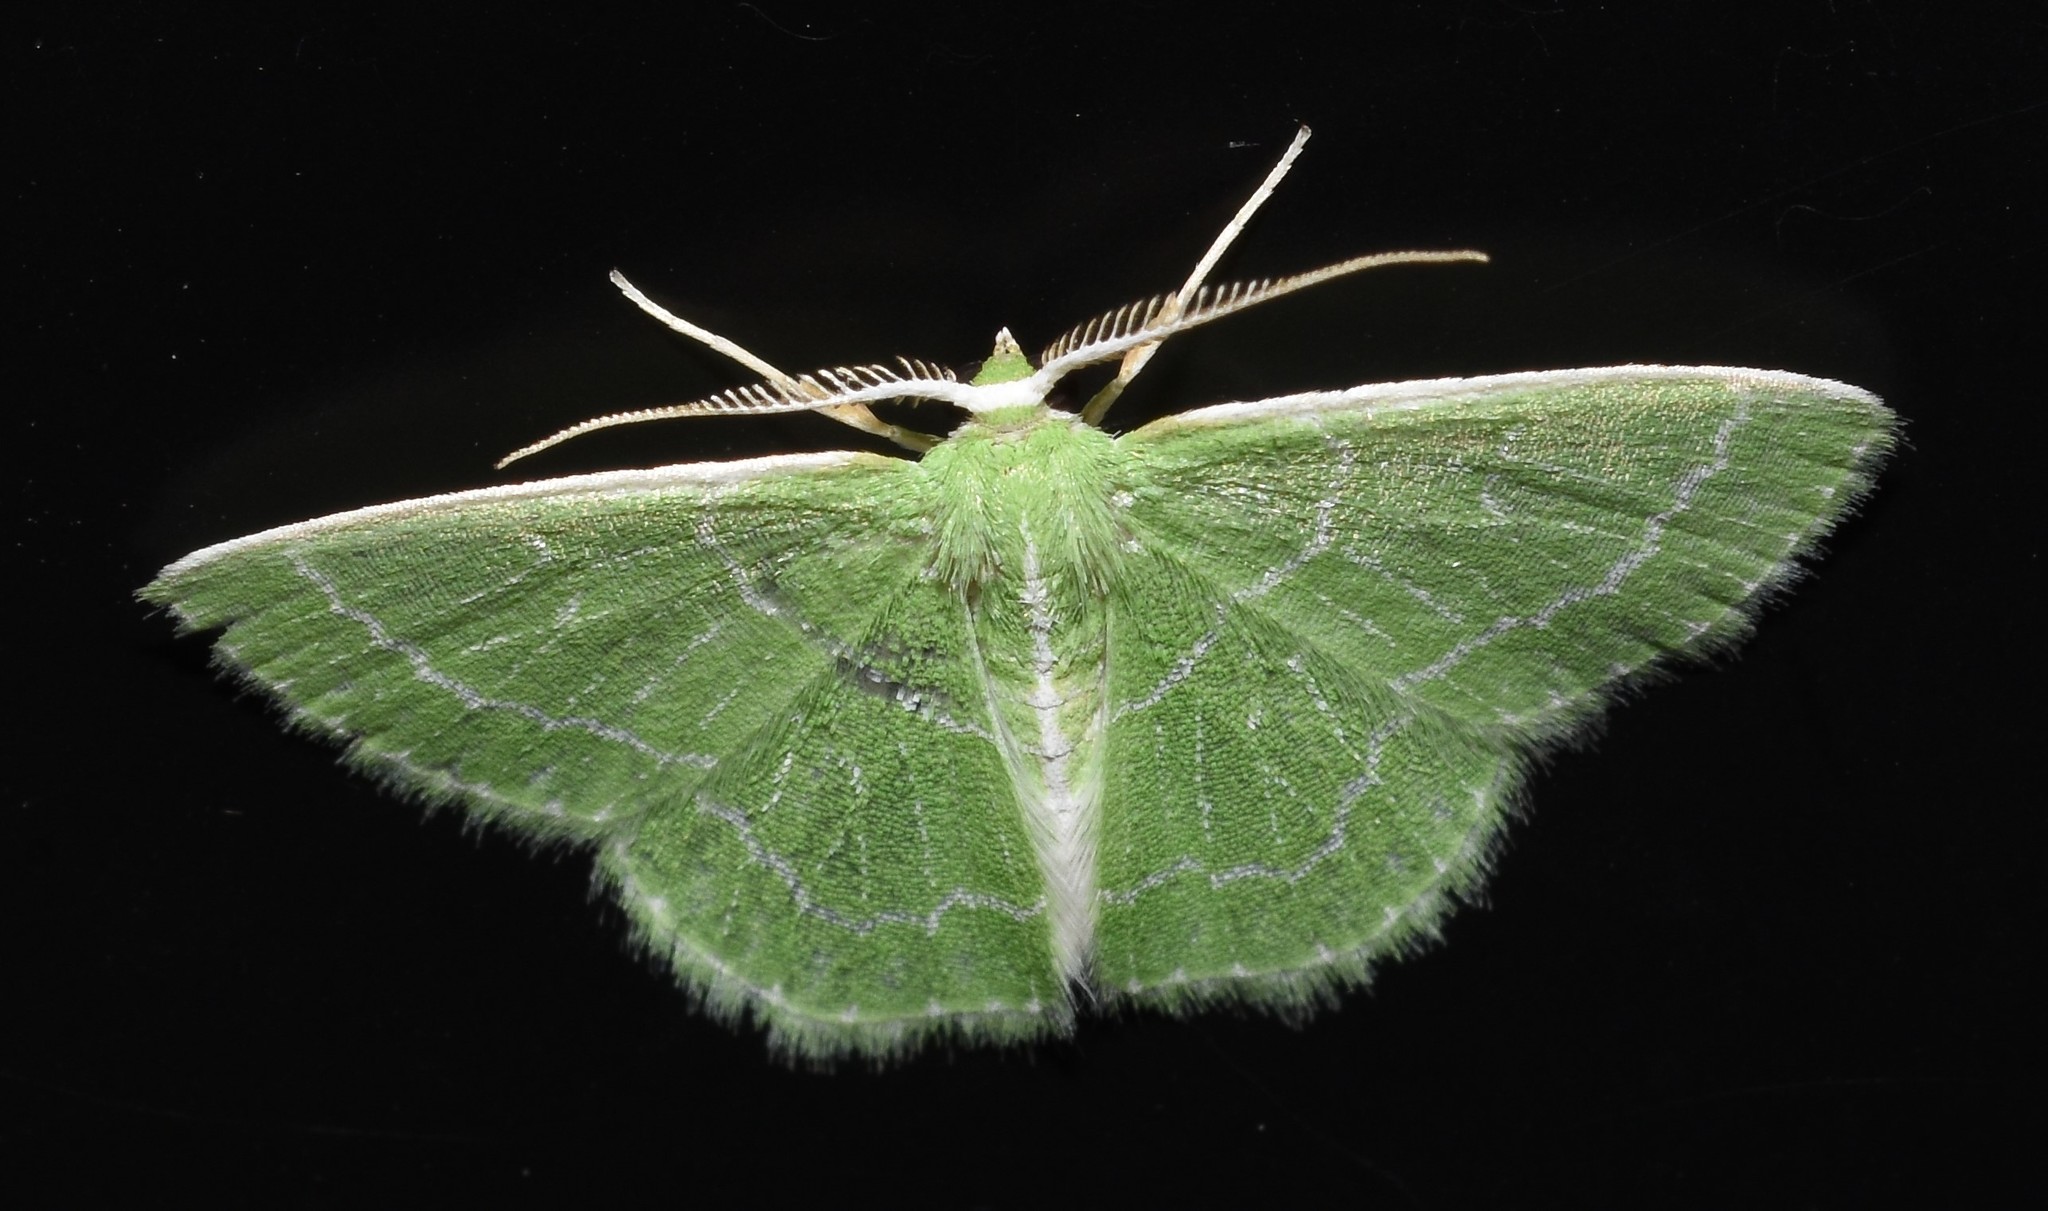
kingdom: Animalia
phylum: Arthropoda
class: Insecta
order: Lepidoptera
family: Geometridae
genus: Synchlora
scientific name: Synchlora aerata
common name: Wavy-lined emerald
